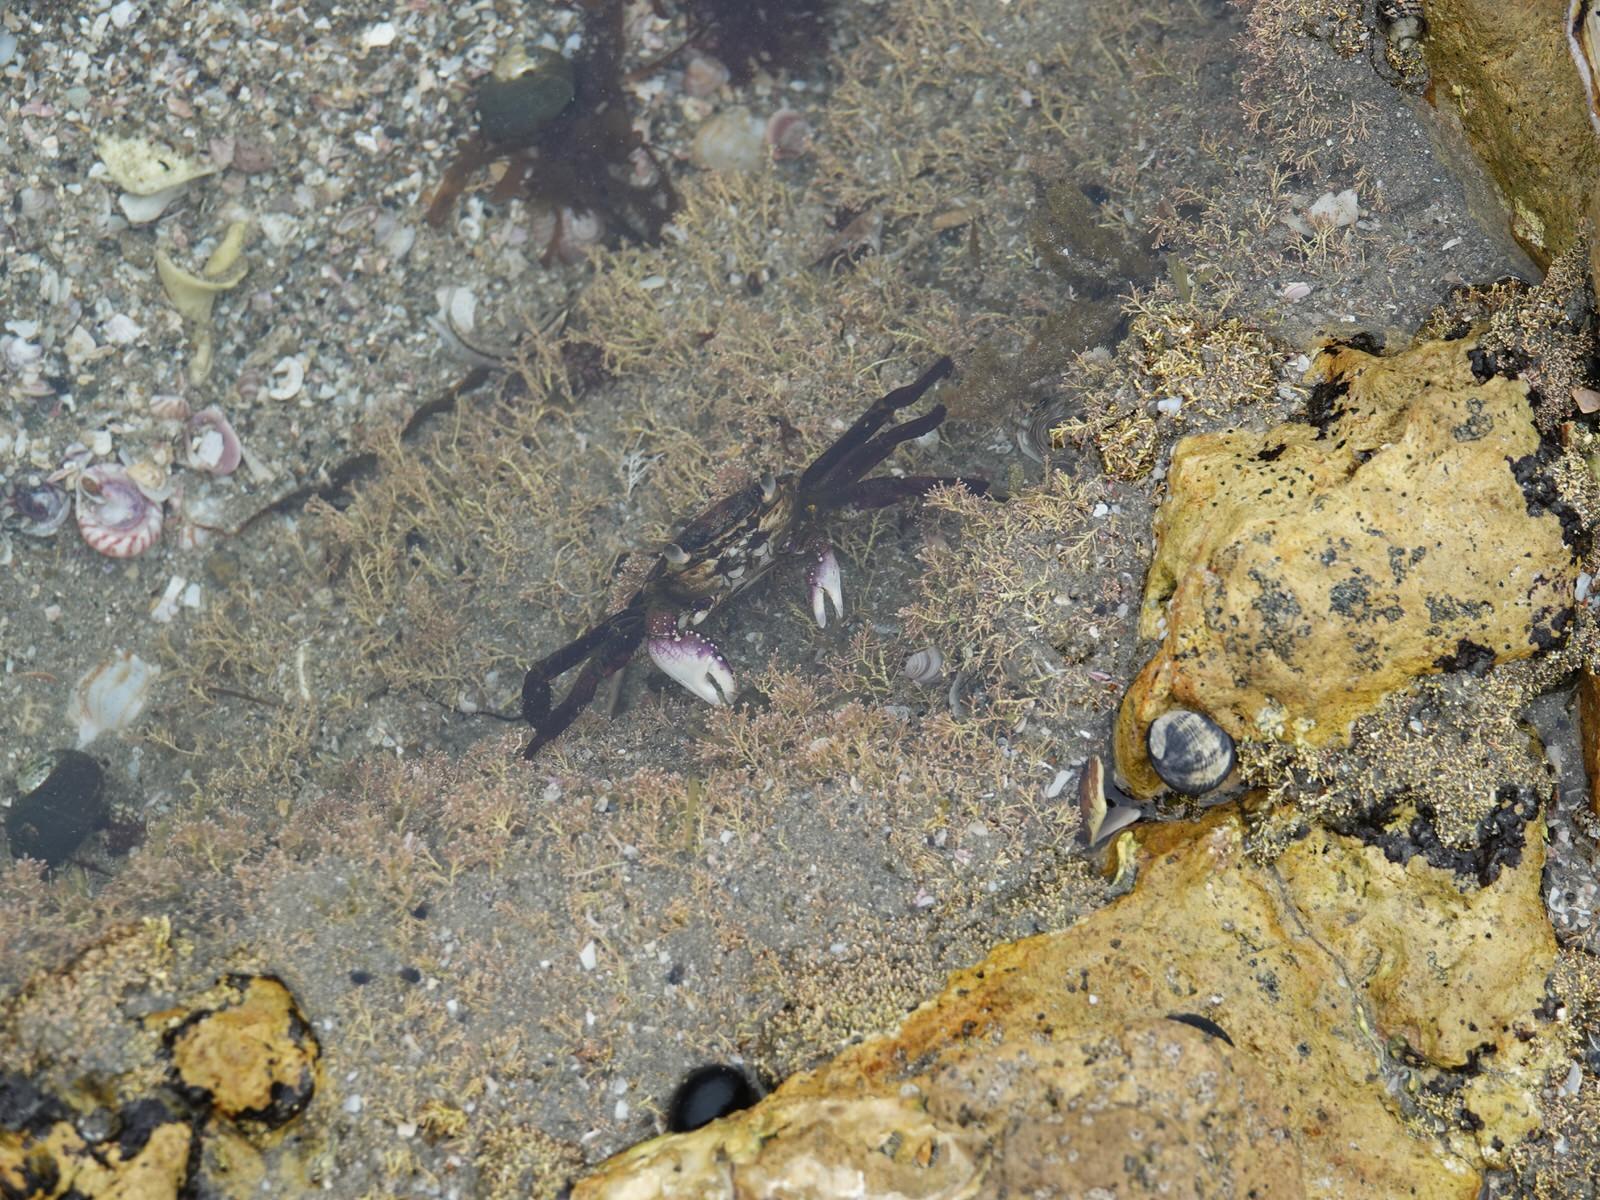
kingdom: Animalia
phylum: Arthropoda
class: Malacostraca
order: Decapoda
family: Grapsidae
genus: Leptograpsus
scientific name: Leptograpsus variegatus
